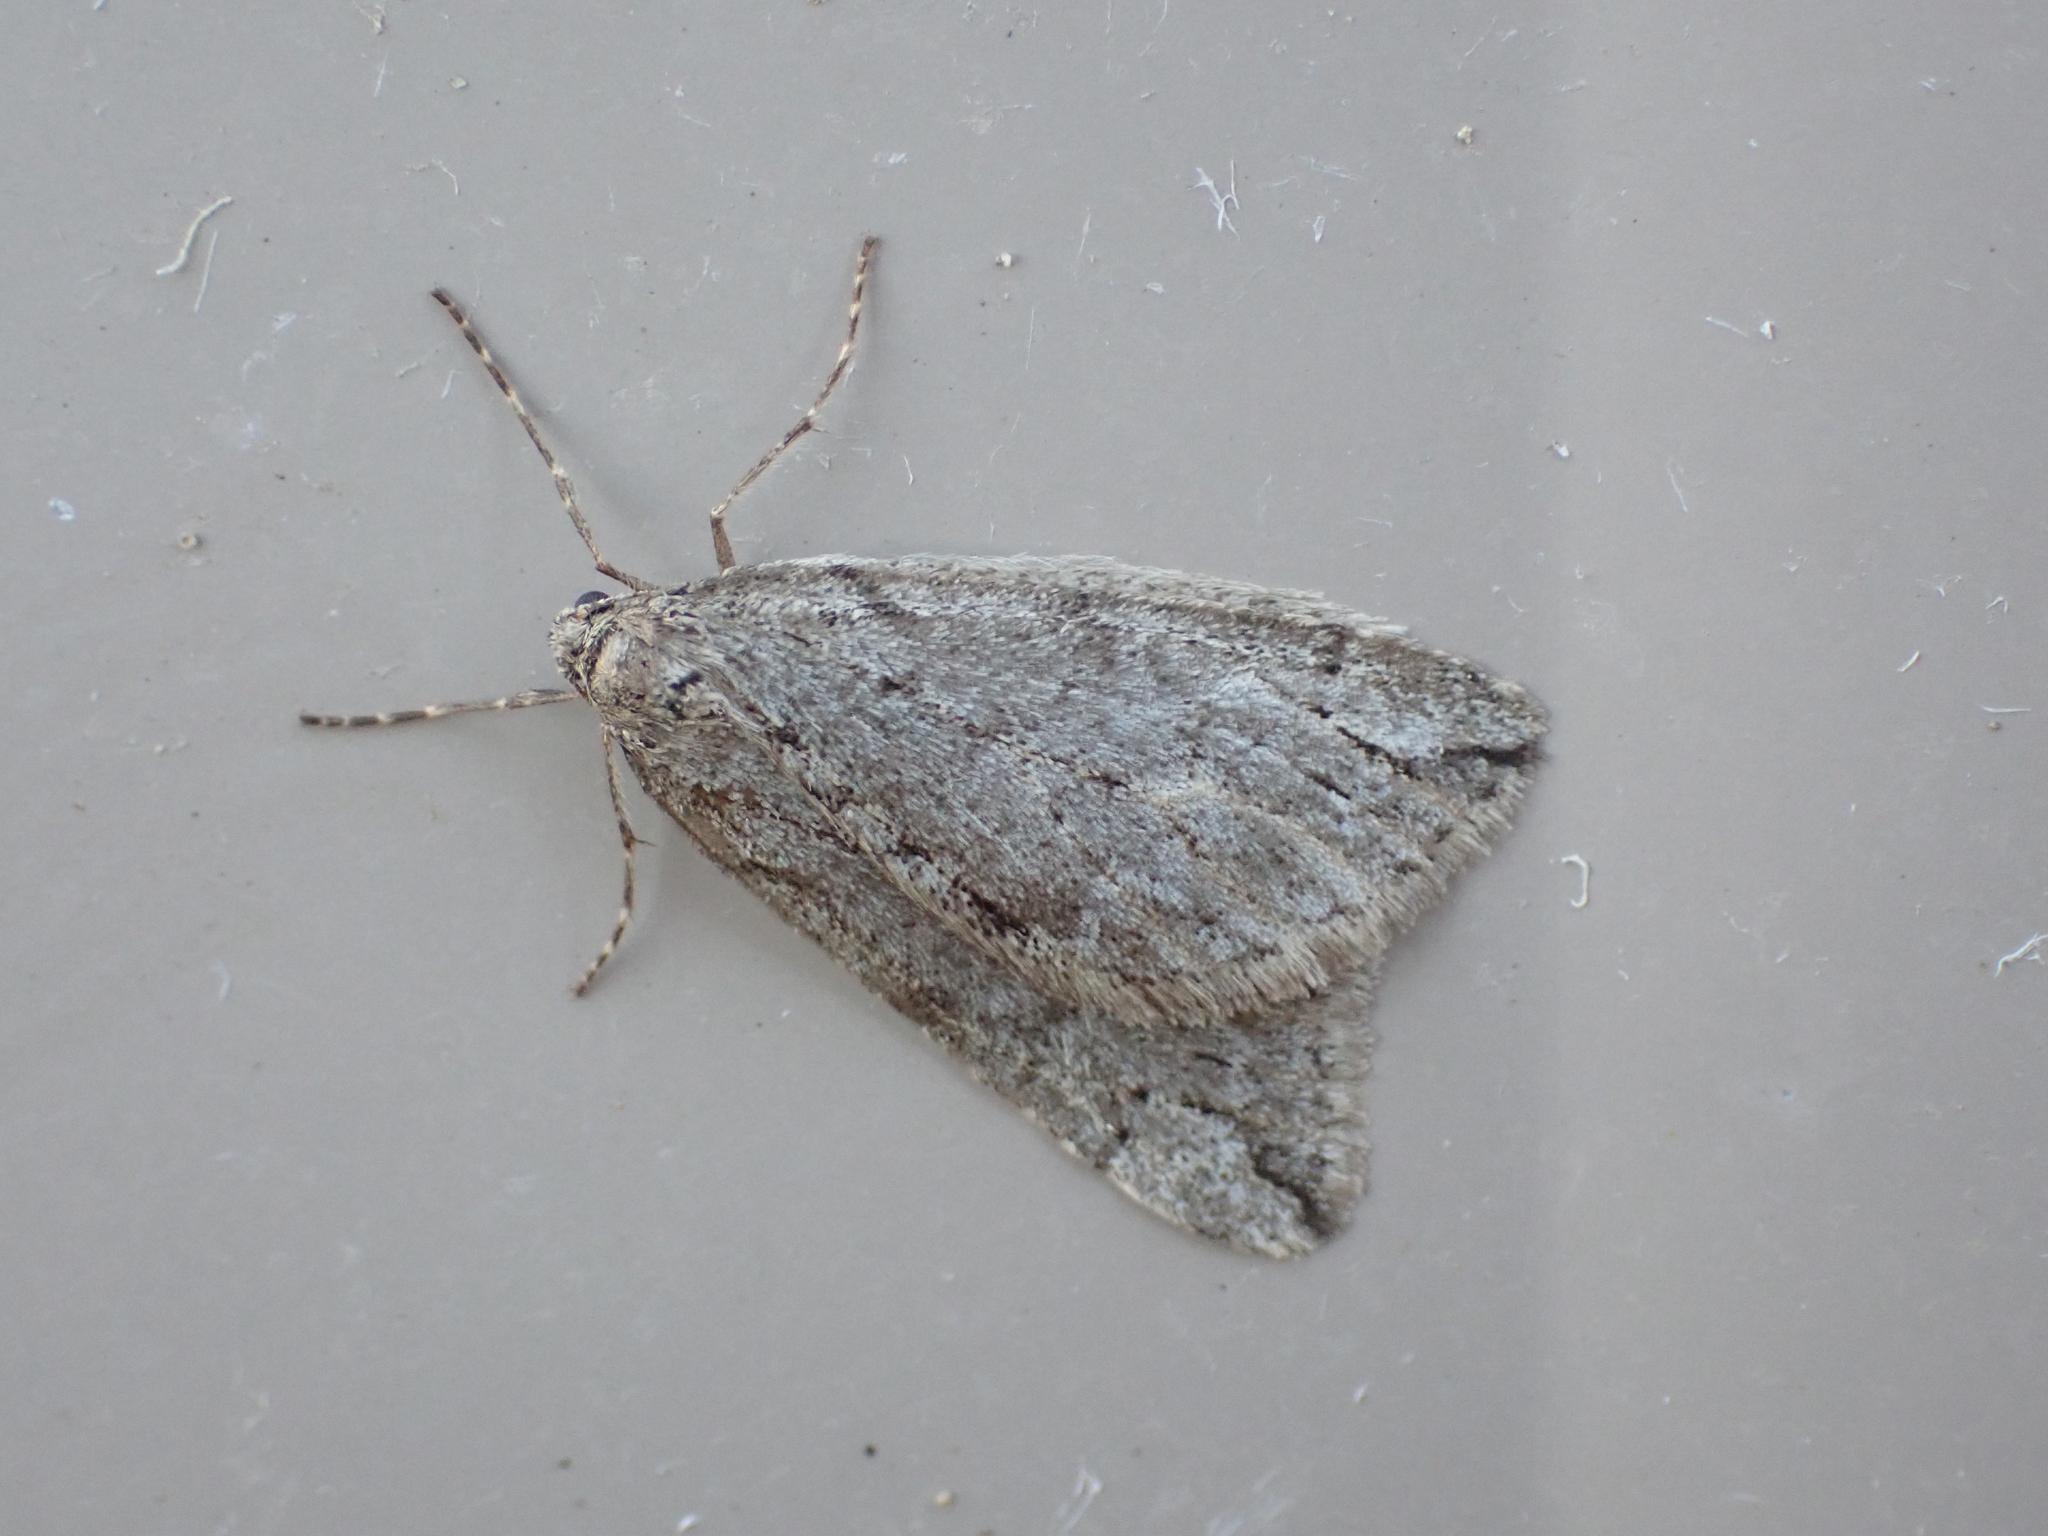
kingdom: Animalia
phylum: Arthropoda
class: Insecta
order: Lepidoptera
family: Geometridae
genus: Paleacrita
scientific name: Paleacrita vernata
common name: Spring cankerworm
